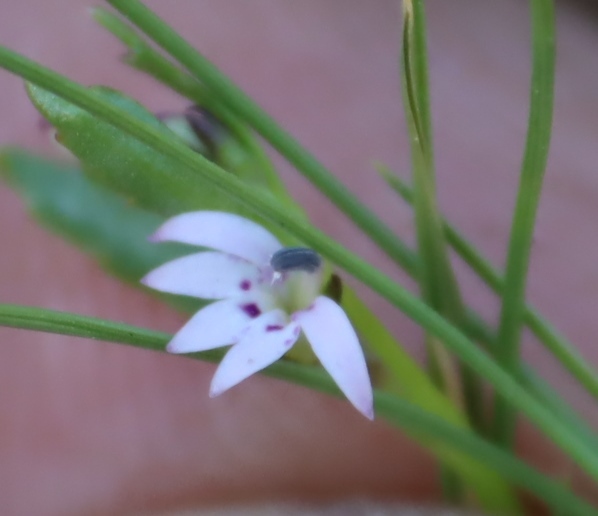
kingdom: Plantae
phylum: Tracheophyta
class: Magnoliopsida
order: Asterales
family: Campanulaceae
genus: Lobelia
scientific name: Lobelia jasionoides
